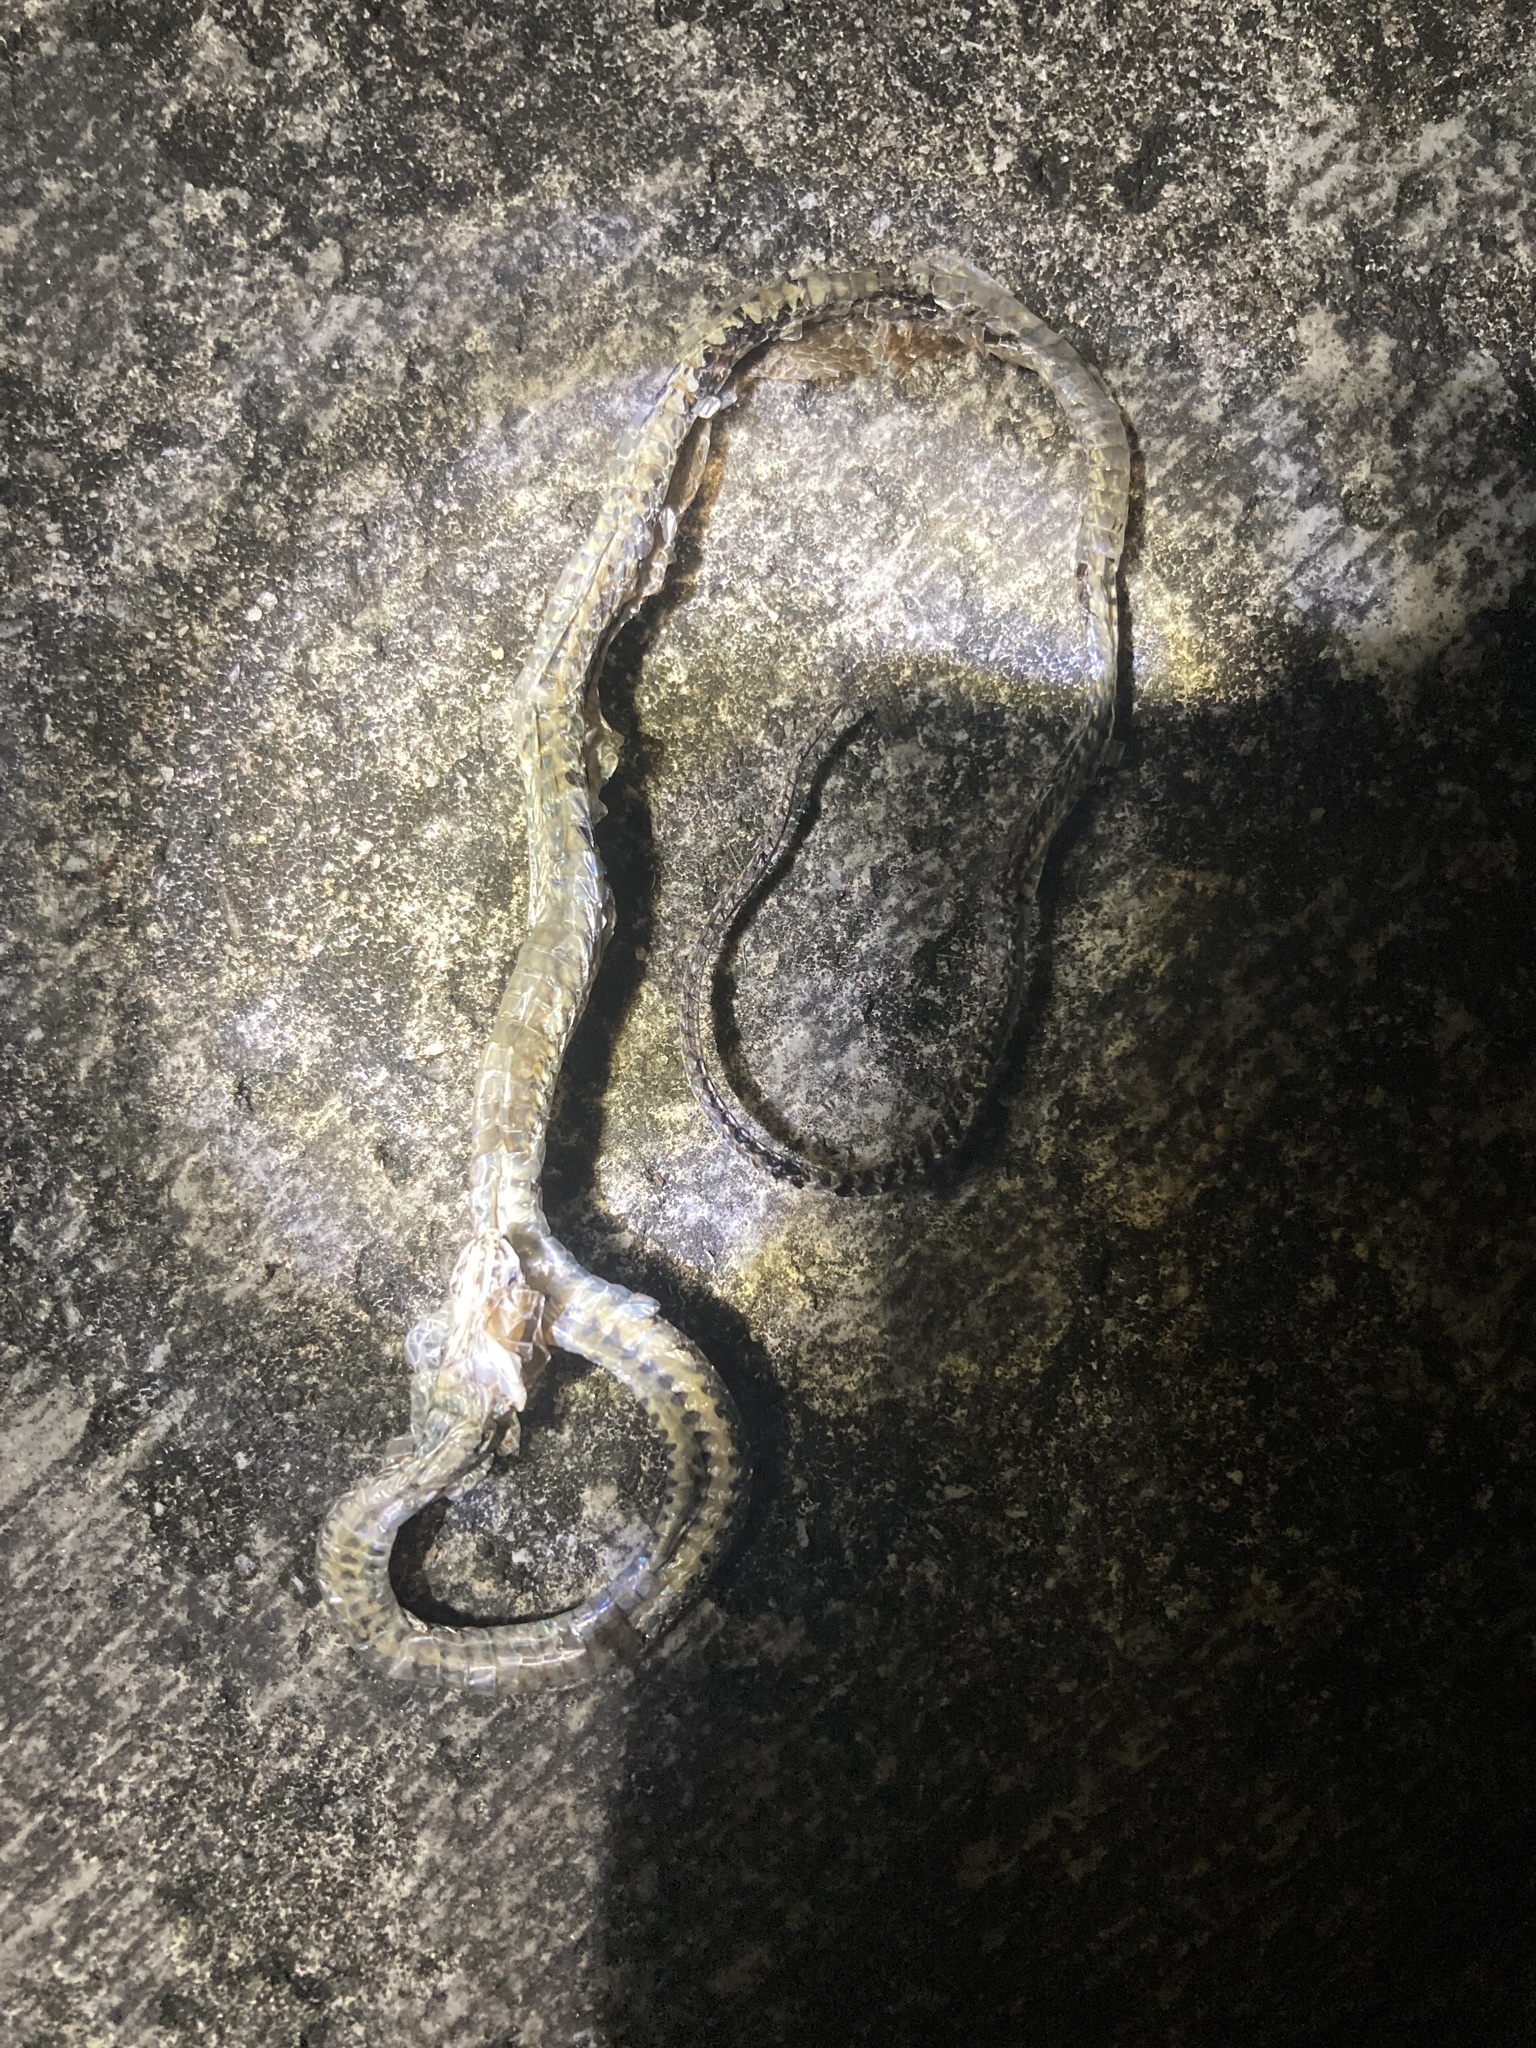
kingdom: Animalia
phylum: Chordata
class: Squamata
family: Colubridae
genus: Diadophis
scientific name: Diadophis punctatus
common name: Ringneck snake
